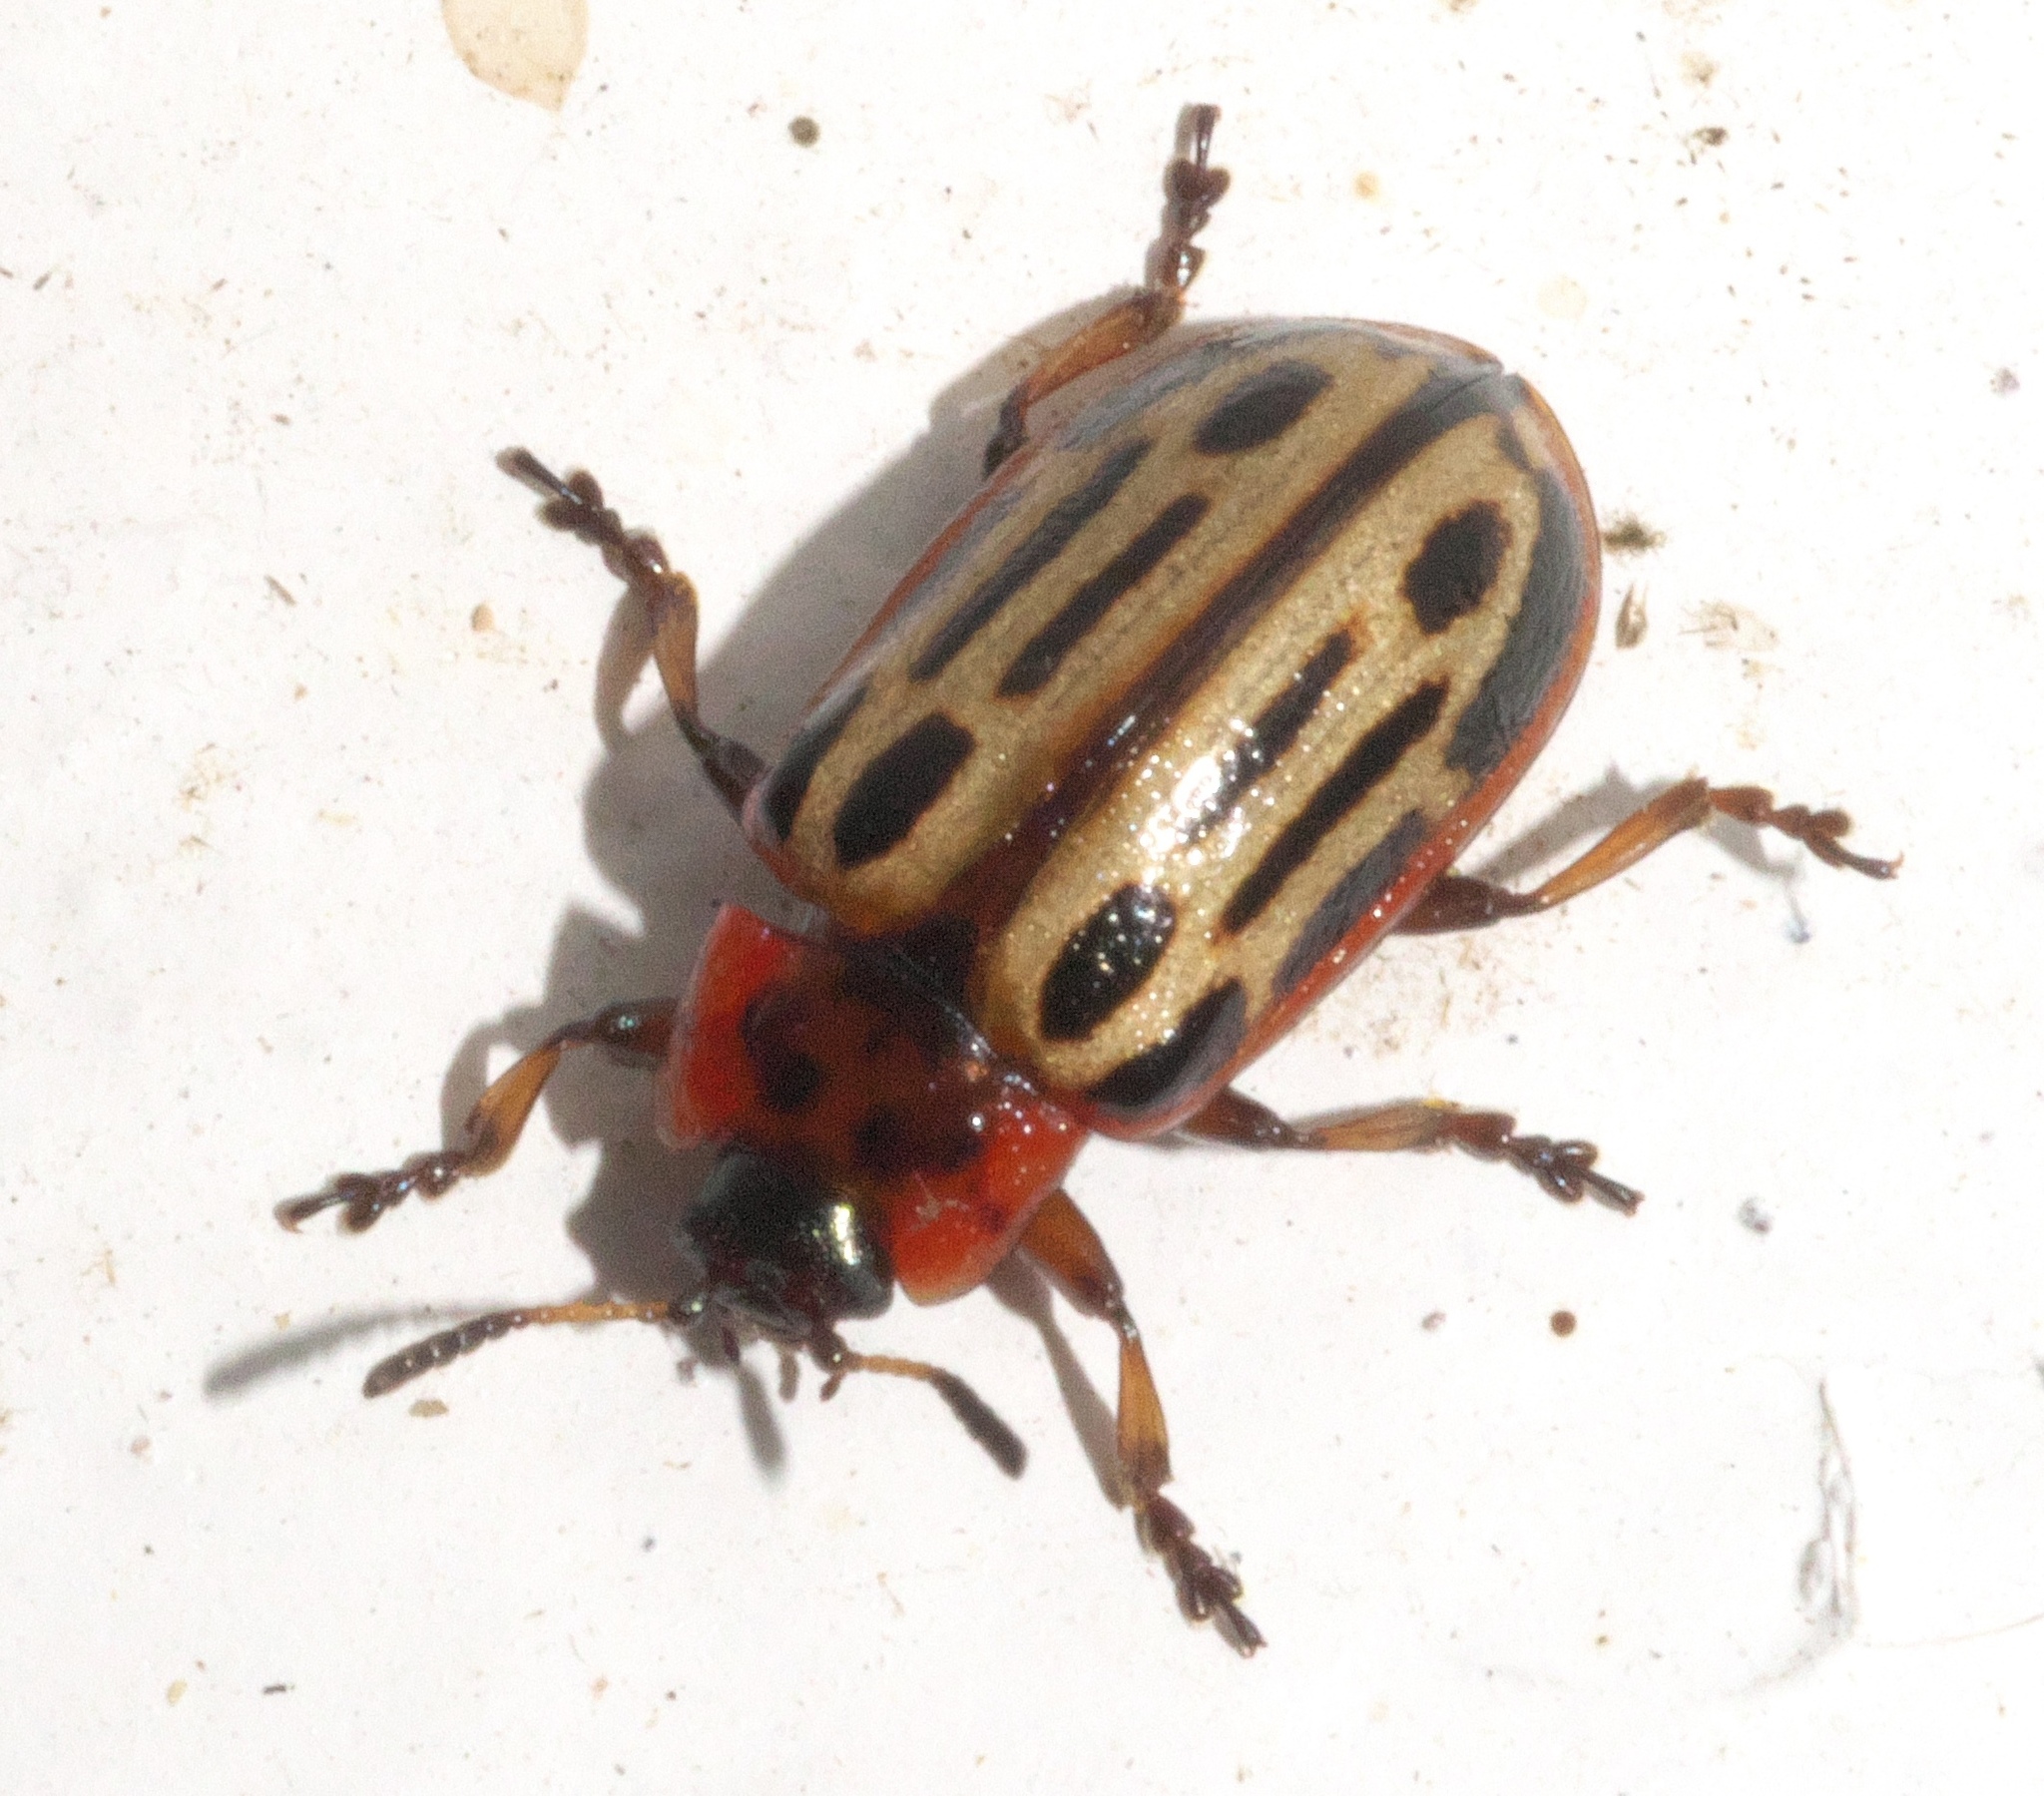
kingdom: Animalia
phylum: Arthropoda
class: Insecta
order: Coleoptera
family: Chrysomelidae
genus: Aethiopocassis
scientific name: Aethiopocassis scripta
